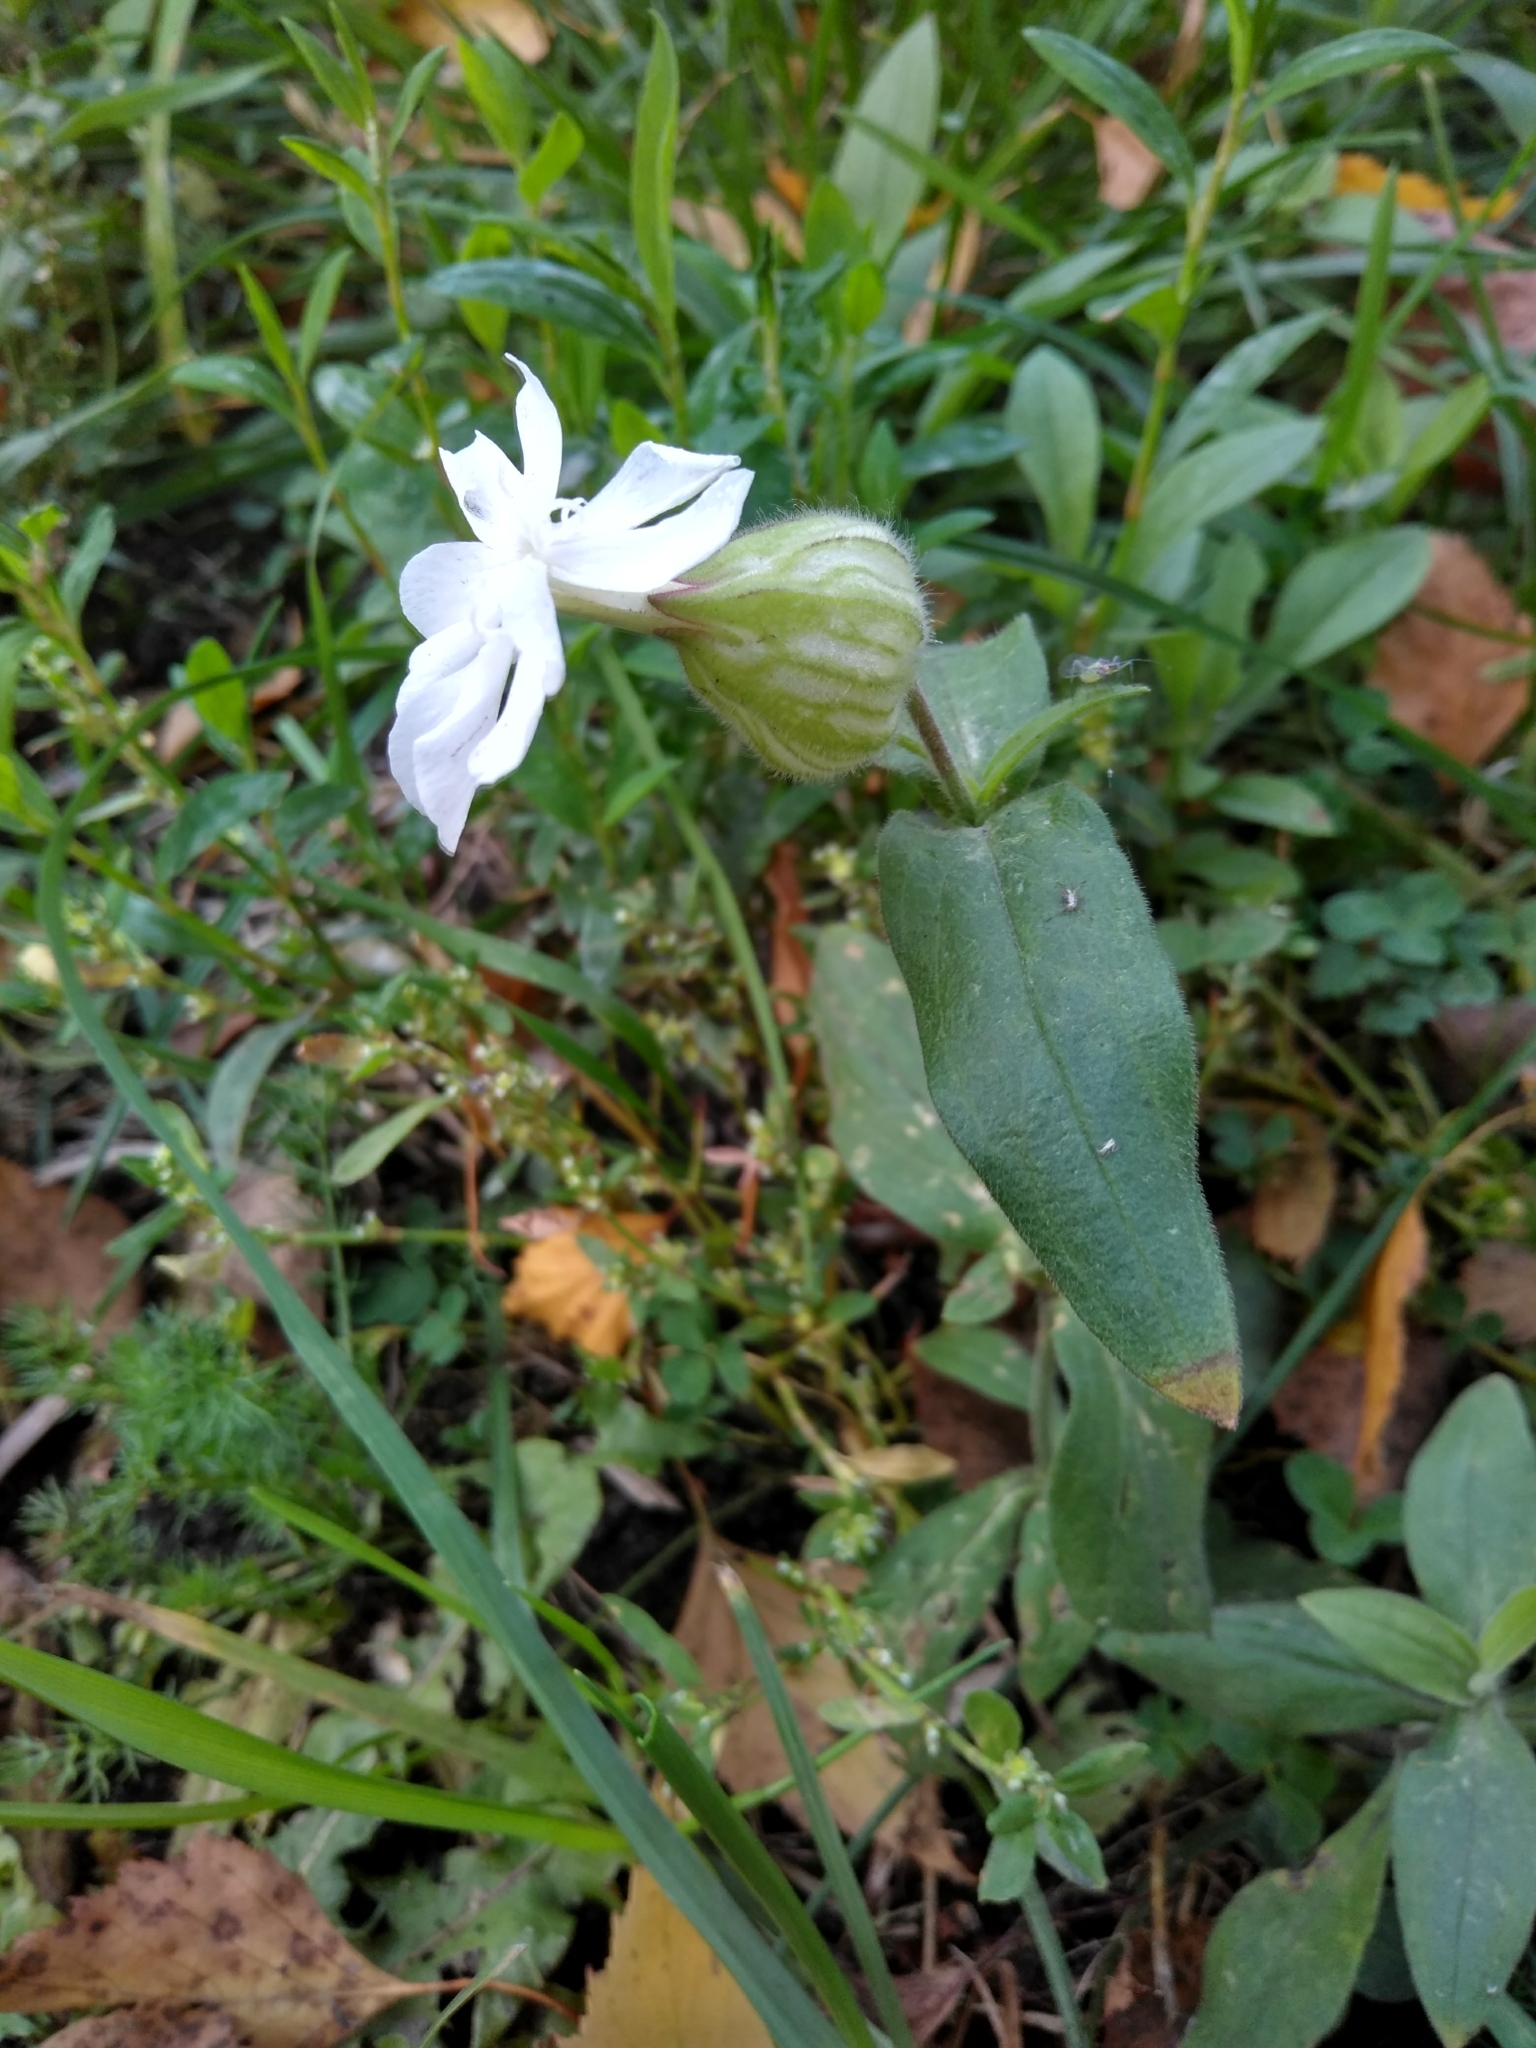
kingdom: Plantae
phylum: Tracheophyta
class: Magnoliopsida
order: Caryophyllales
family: Caryophyllaceae
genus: Silene
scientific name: Silene latifolia
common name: White campion
